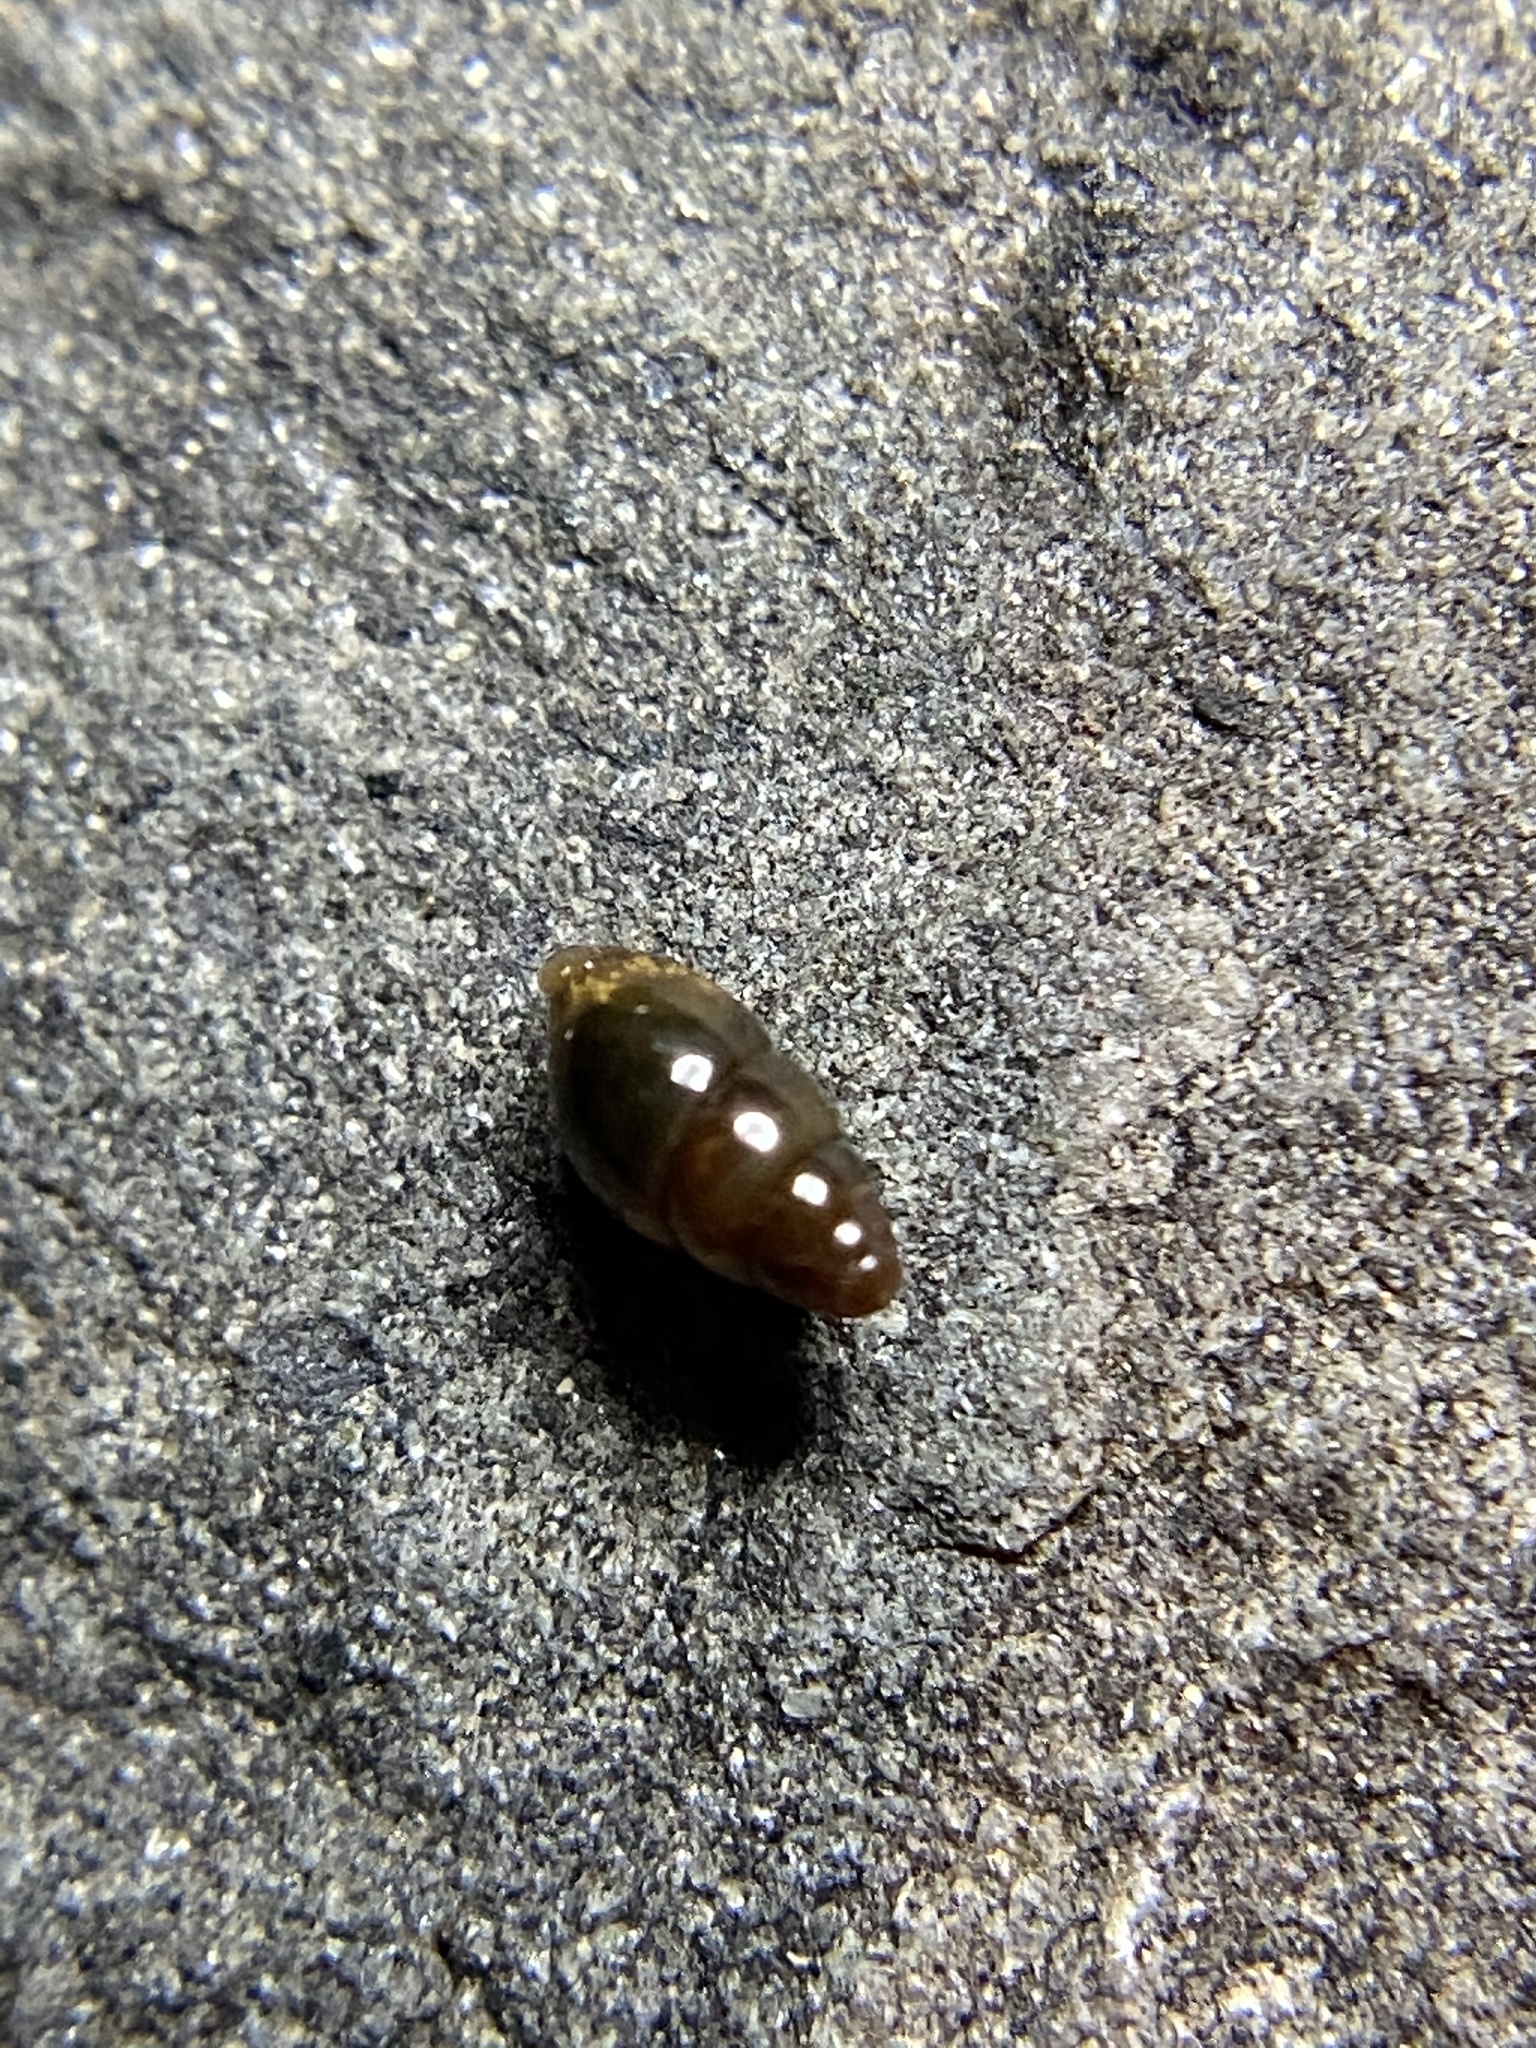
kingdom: Animalia
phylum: Mollusca
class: Gastropoda
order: Stylommatophora
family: Cochlicopidae
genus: Cochlicopa
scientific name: Cochlicopa lubrica
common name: Glossy pillar snail
